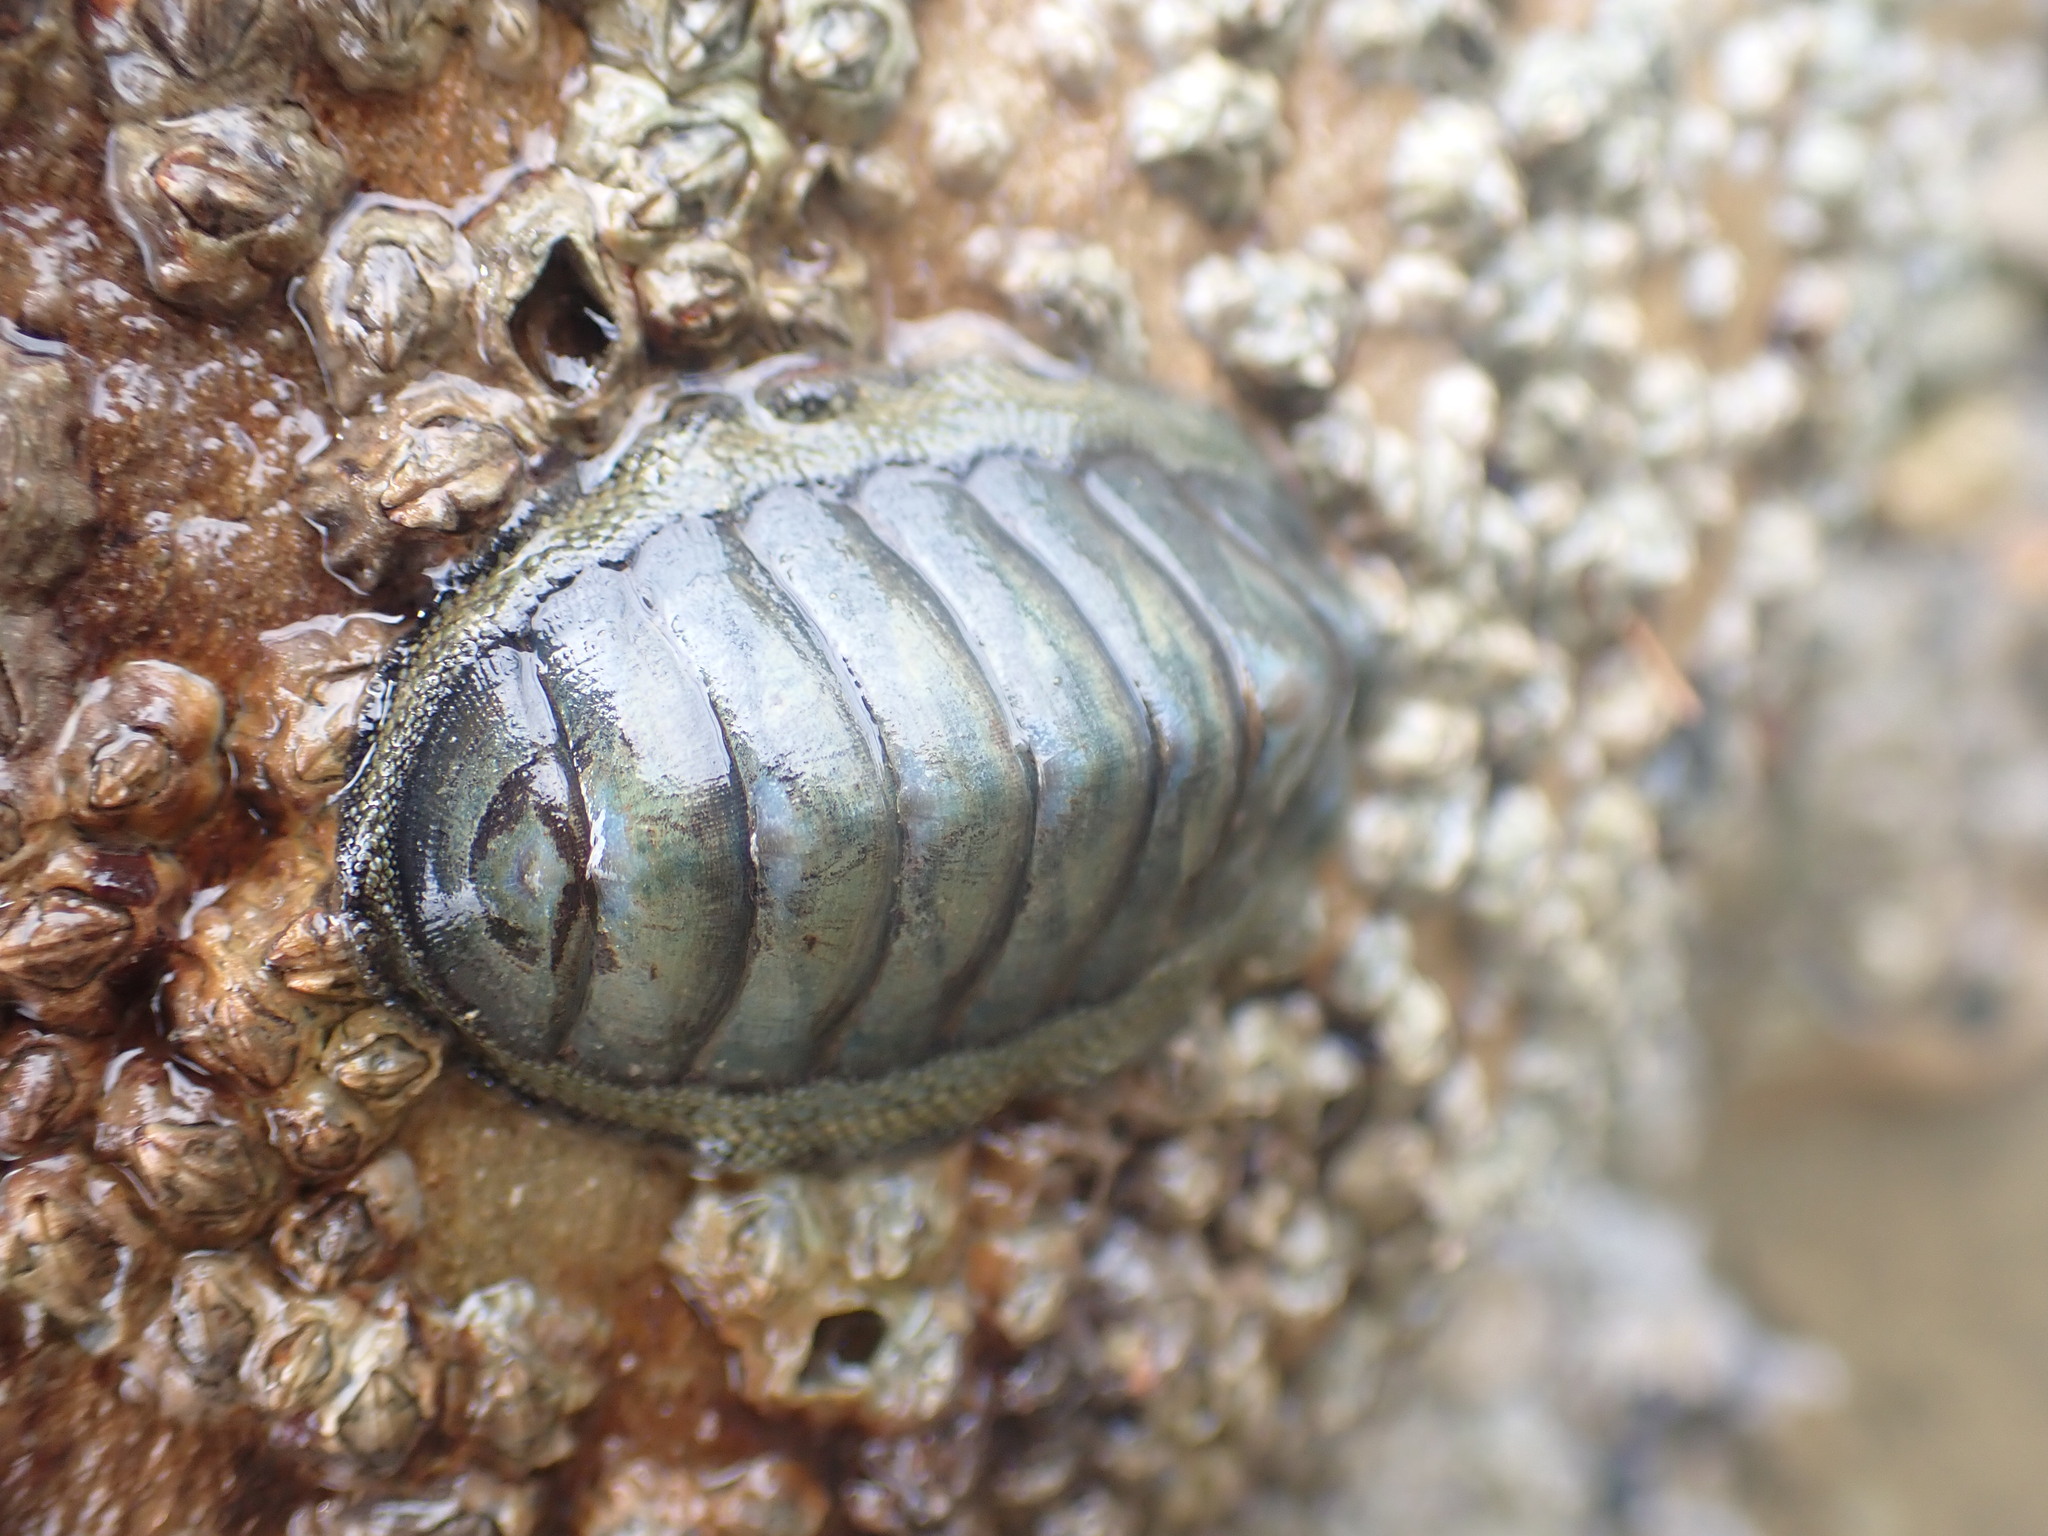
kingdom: Animalia
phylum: Mollusca
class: Polyplacophora
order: Chitonida
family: Chitonidae
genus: Chiton
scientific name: Chiton glaucus
